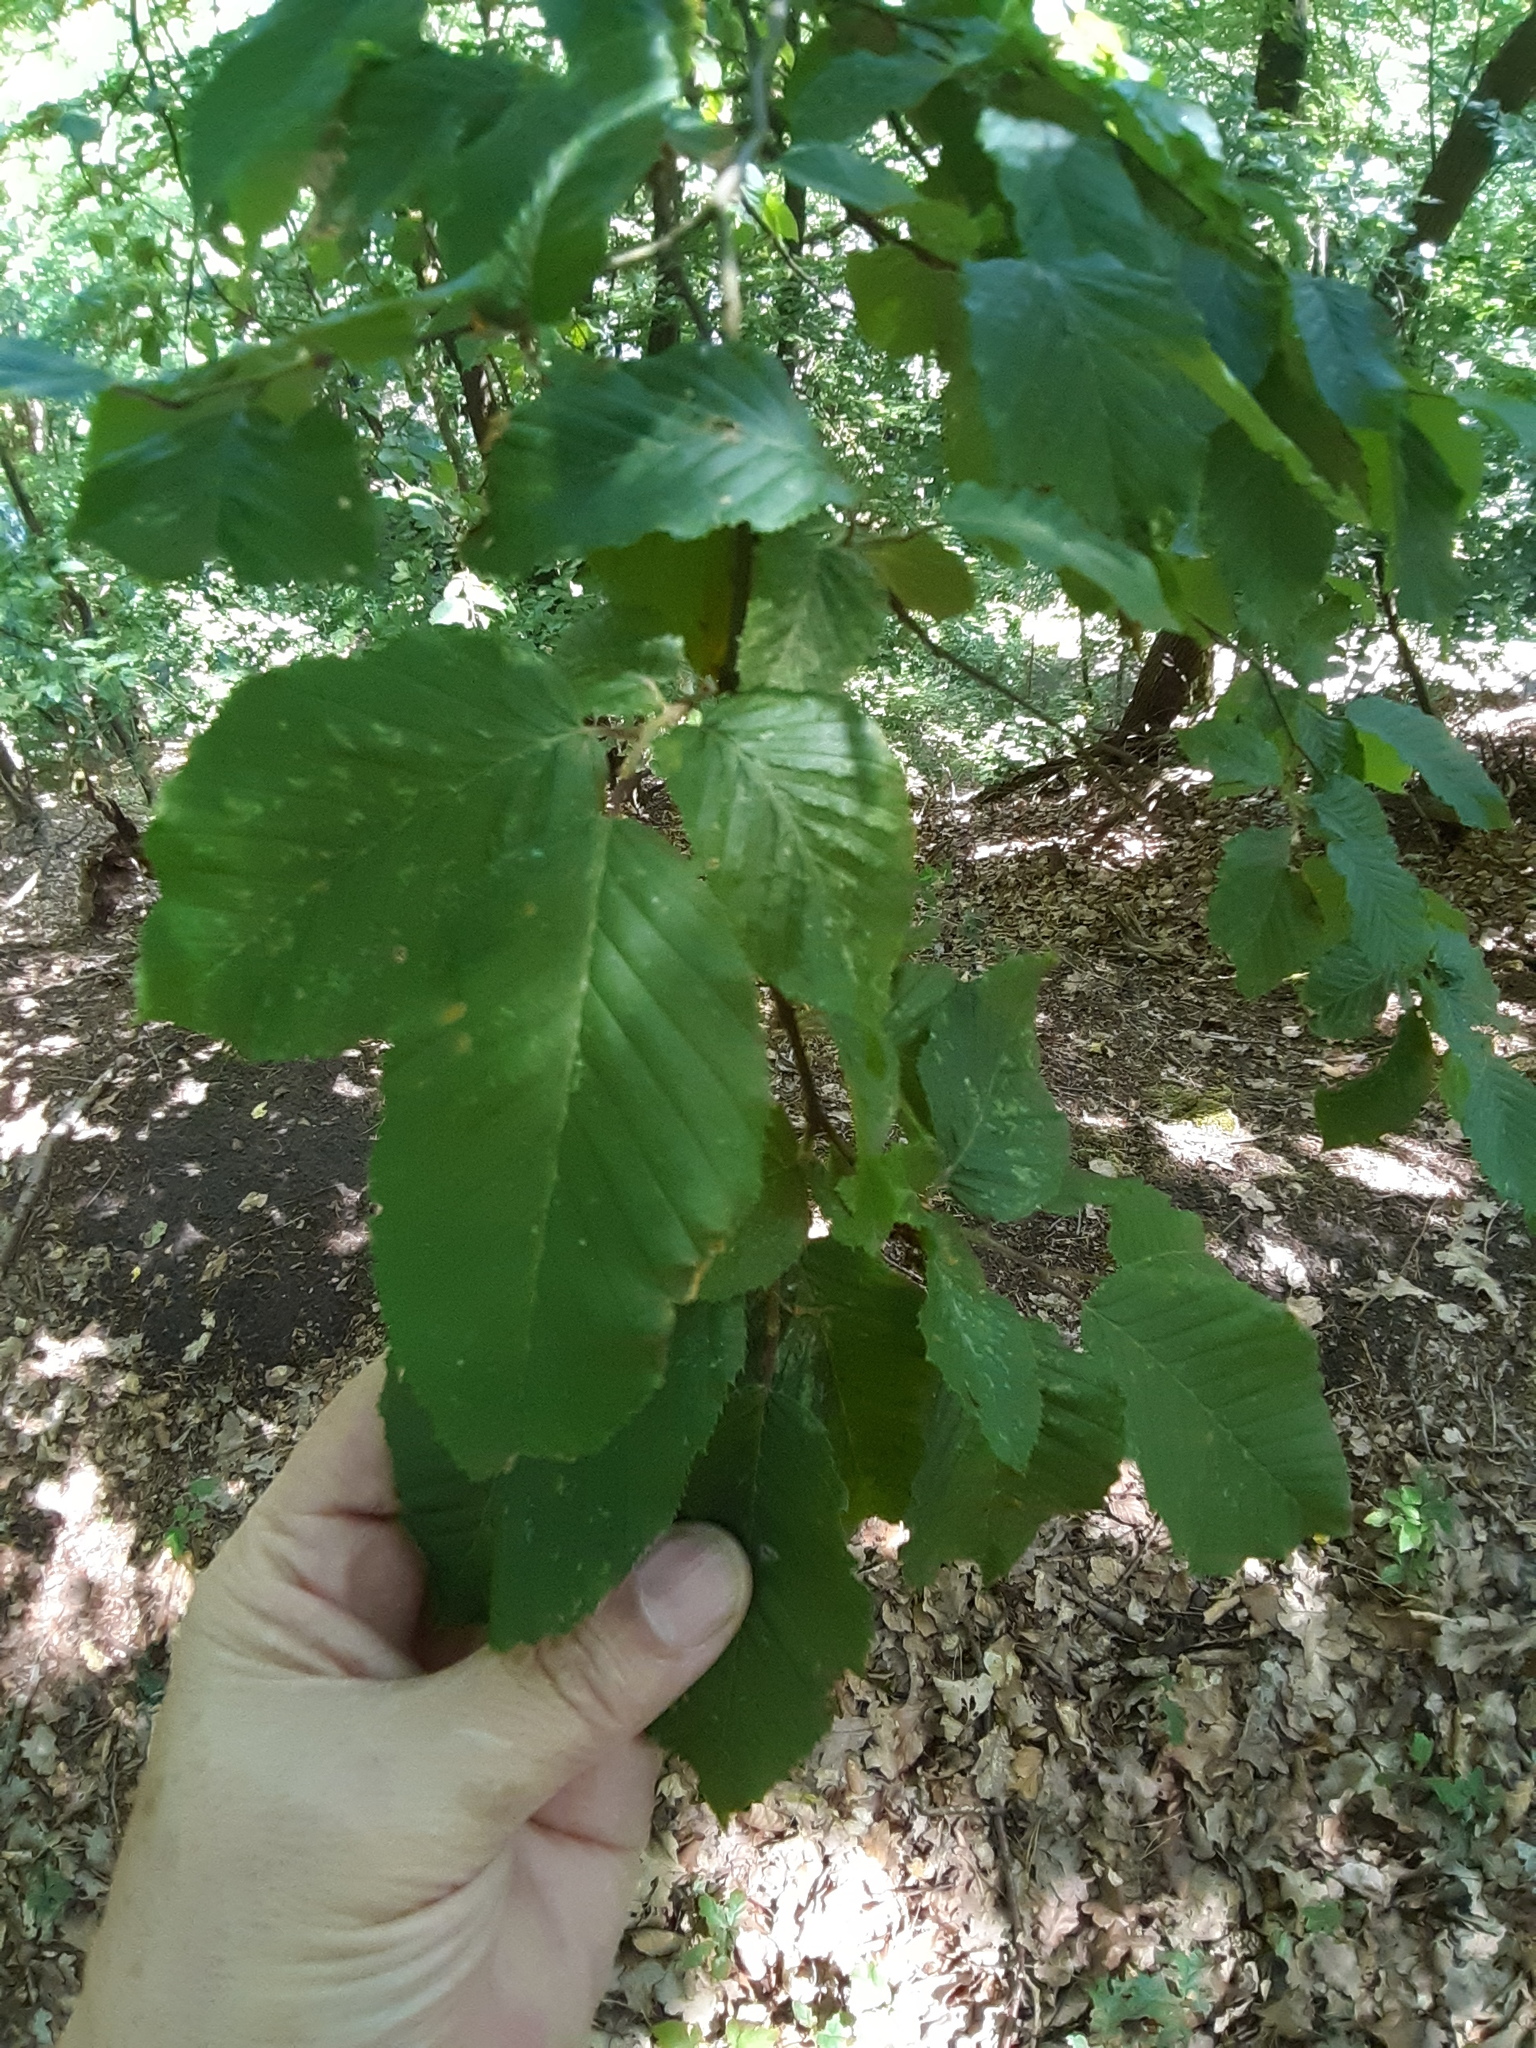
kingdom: Plantae
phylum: Tracheophyta
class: Magnoliopsida
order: Fagales
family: Fagaceae
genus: Fagus
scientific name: Fagus sylvatica
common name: Beech
